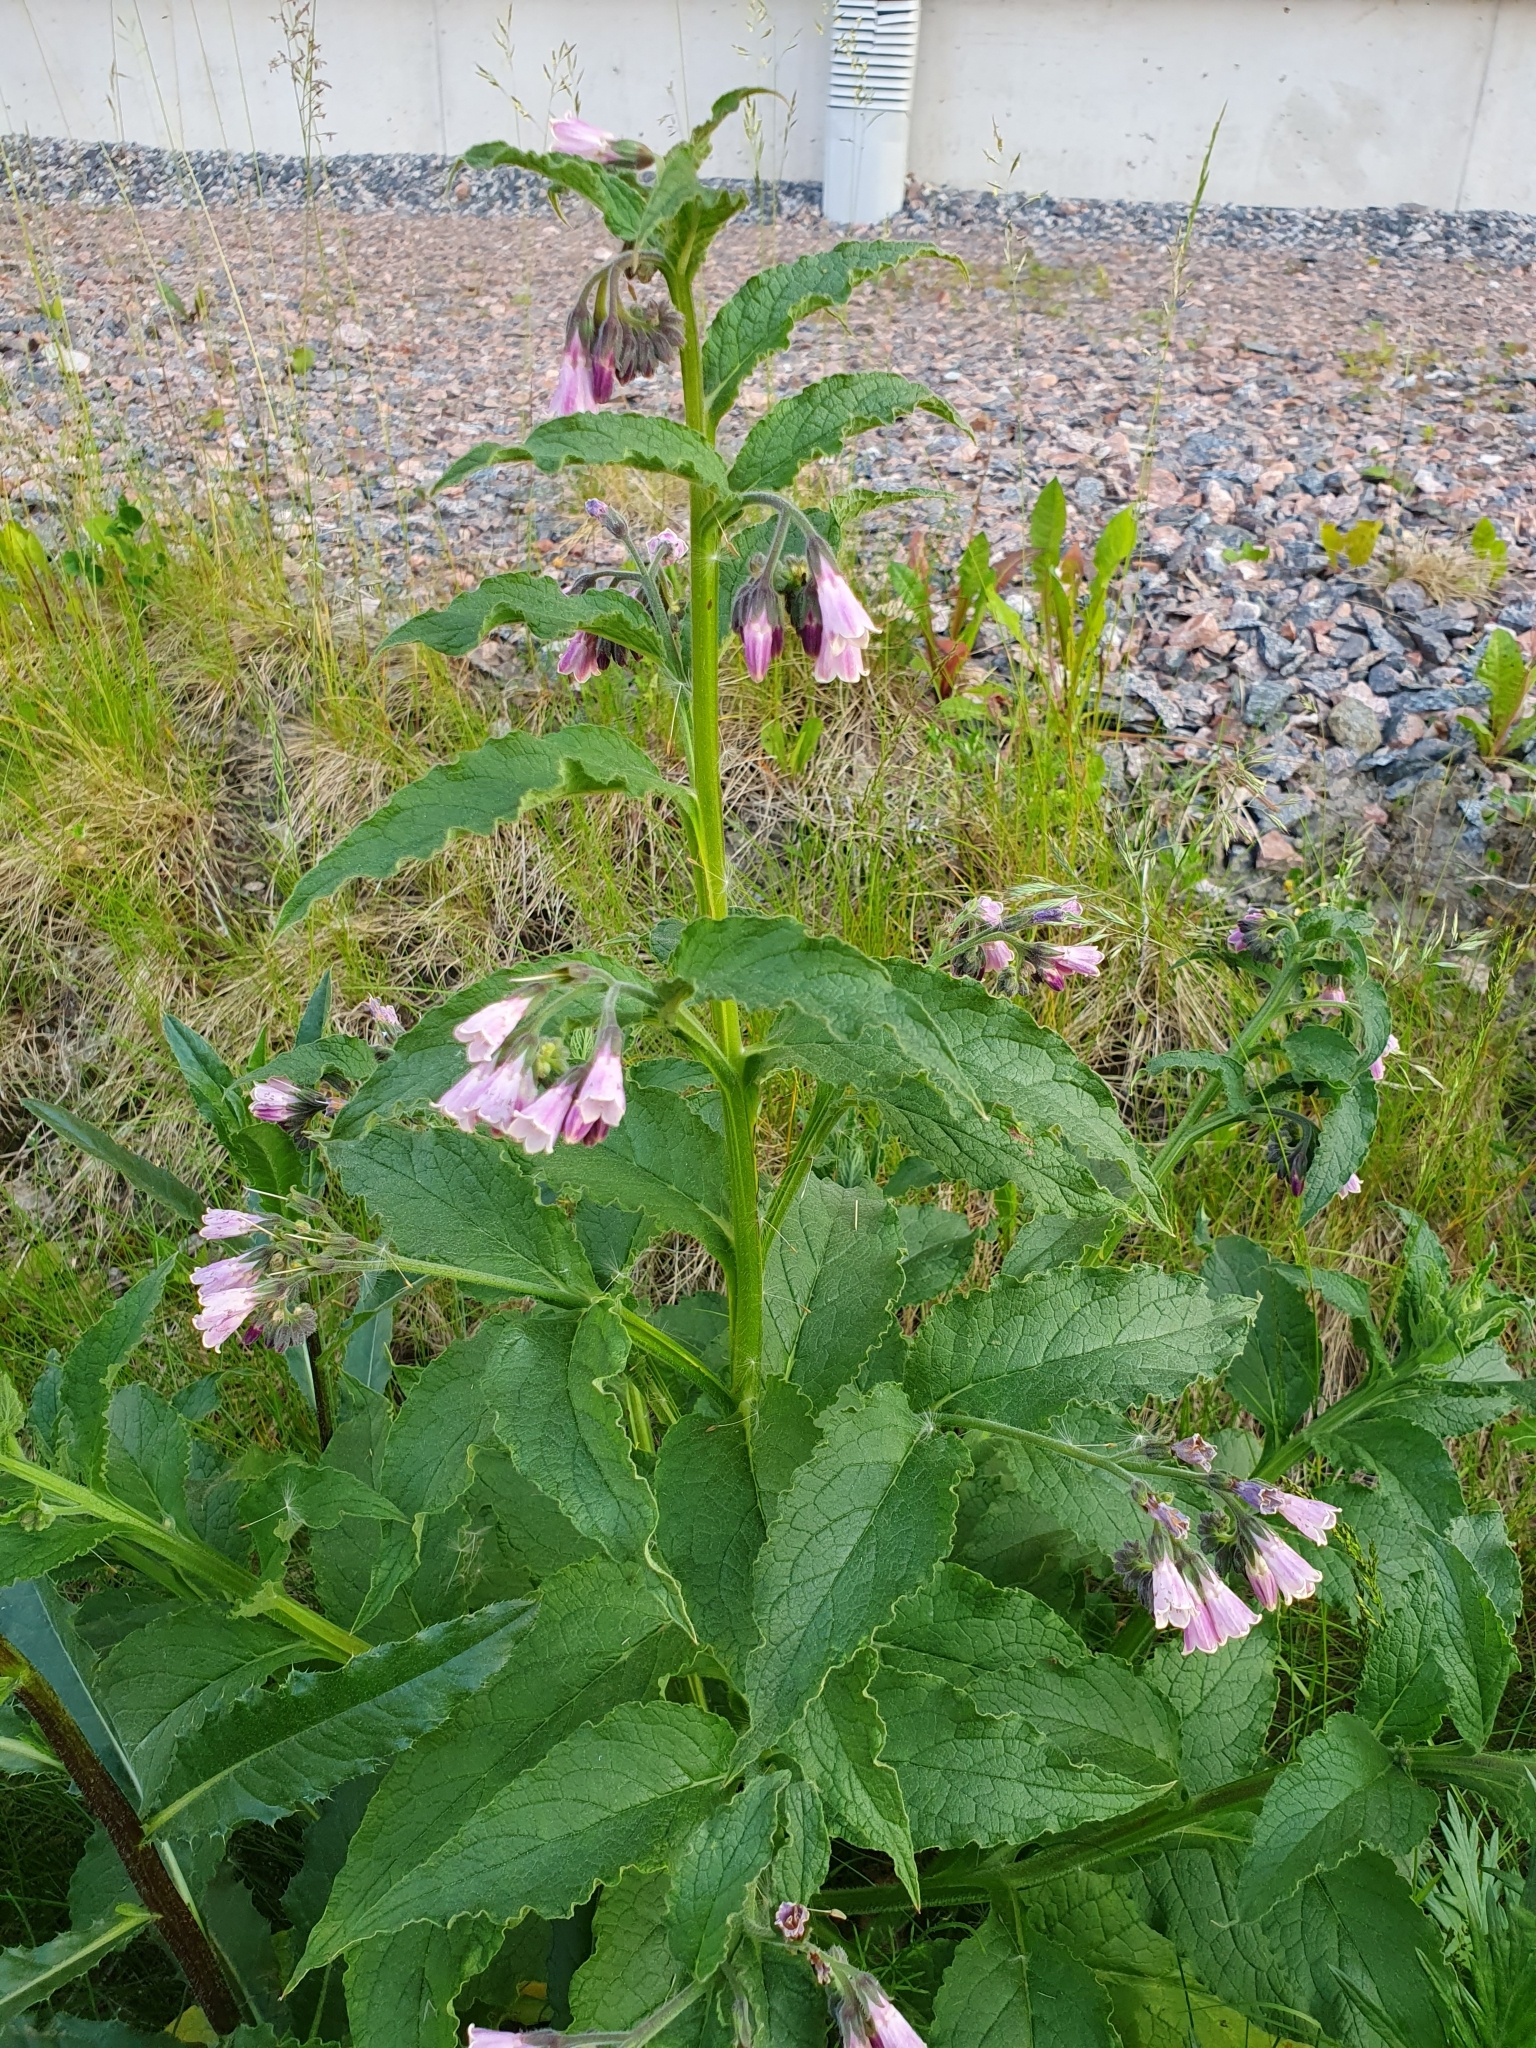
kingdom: Plantae
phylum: Tracheophyta
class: Magnoliopsida
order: Boraginales
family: Boraginaceae
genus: Symphytum
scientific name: Symphytum officinale
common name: Common comfrey
